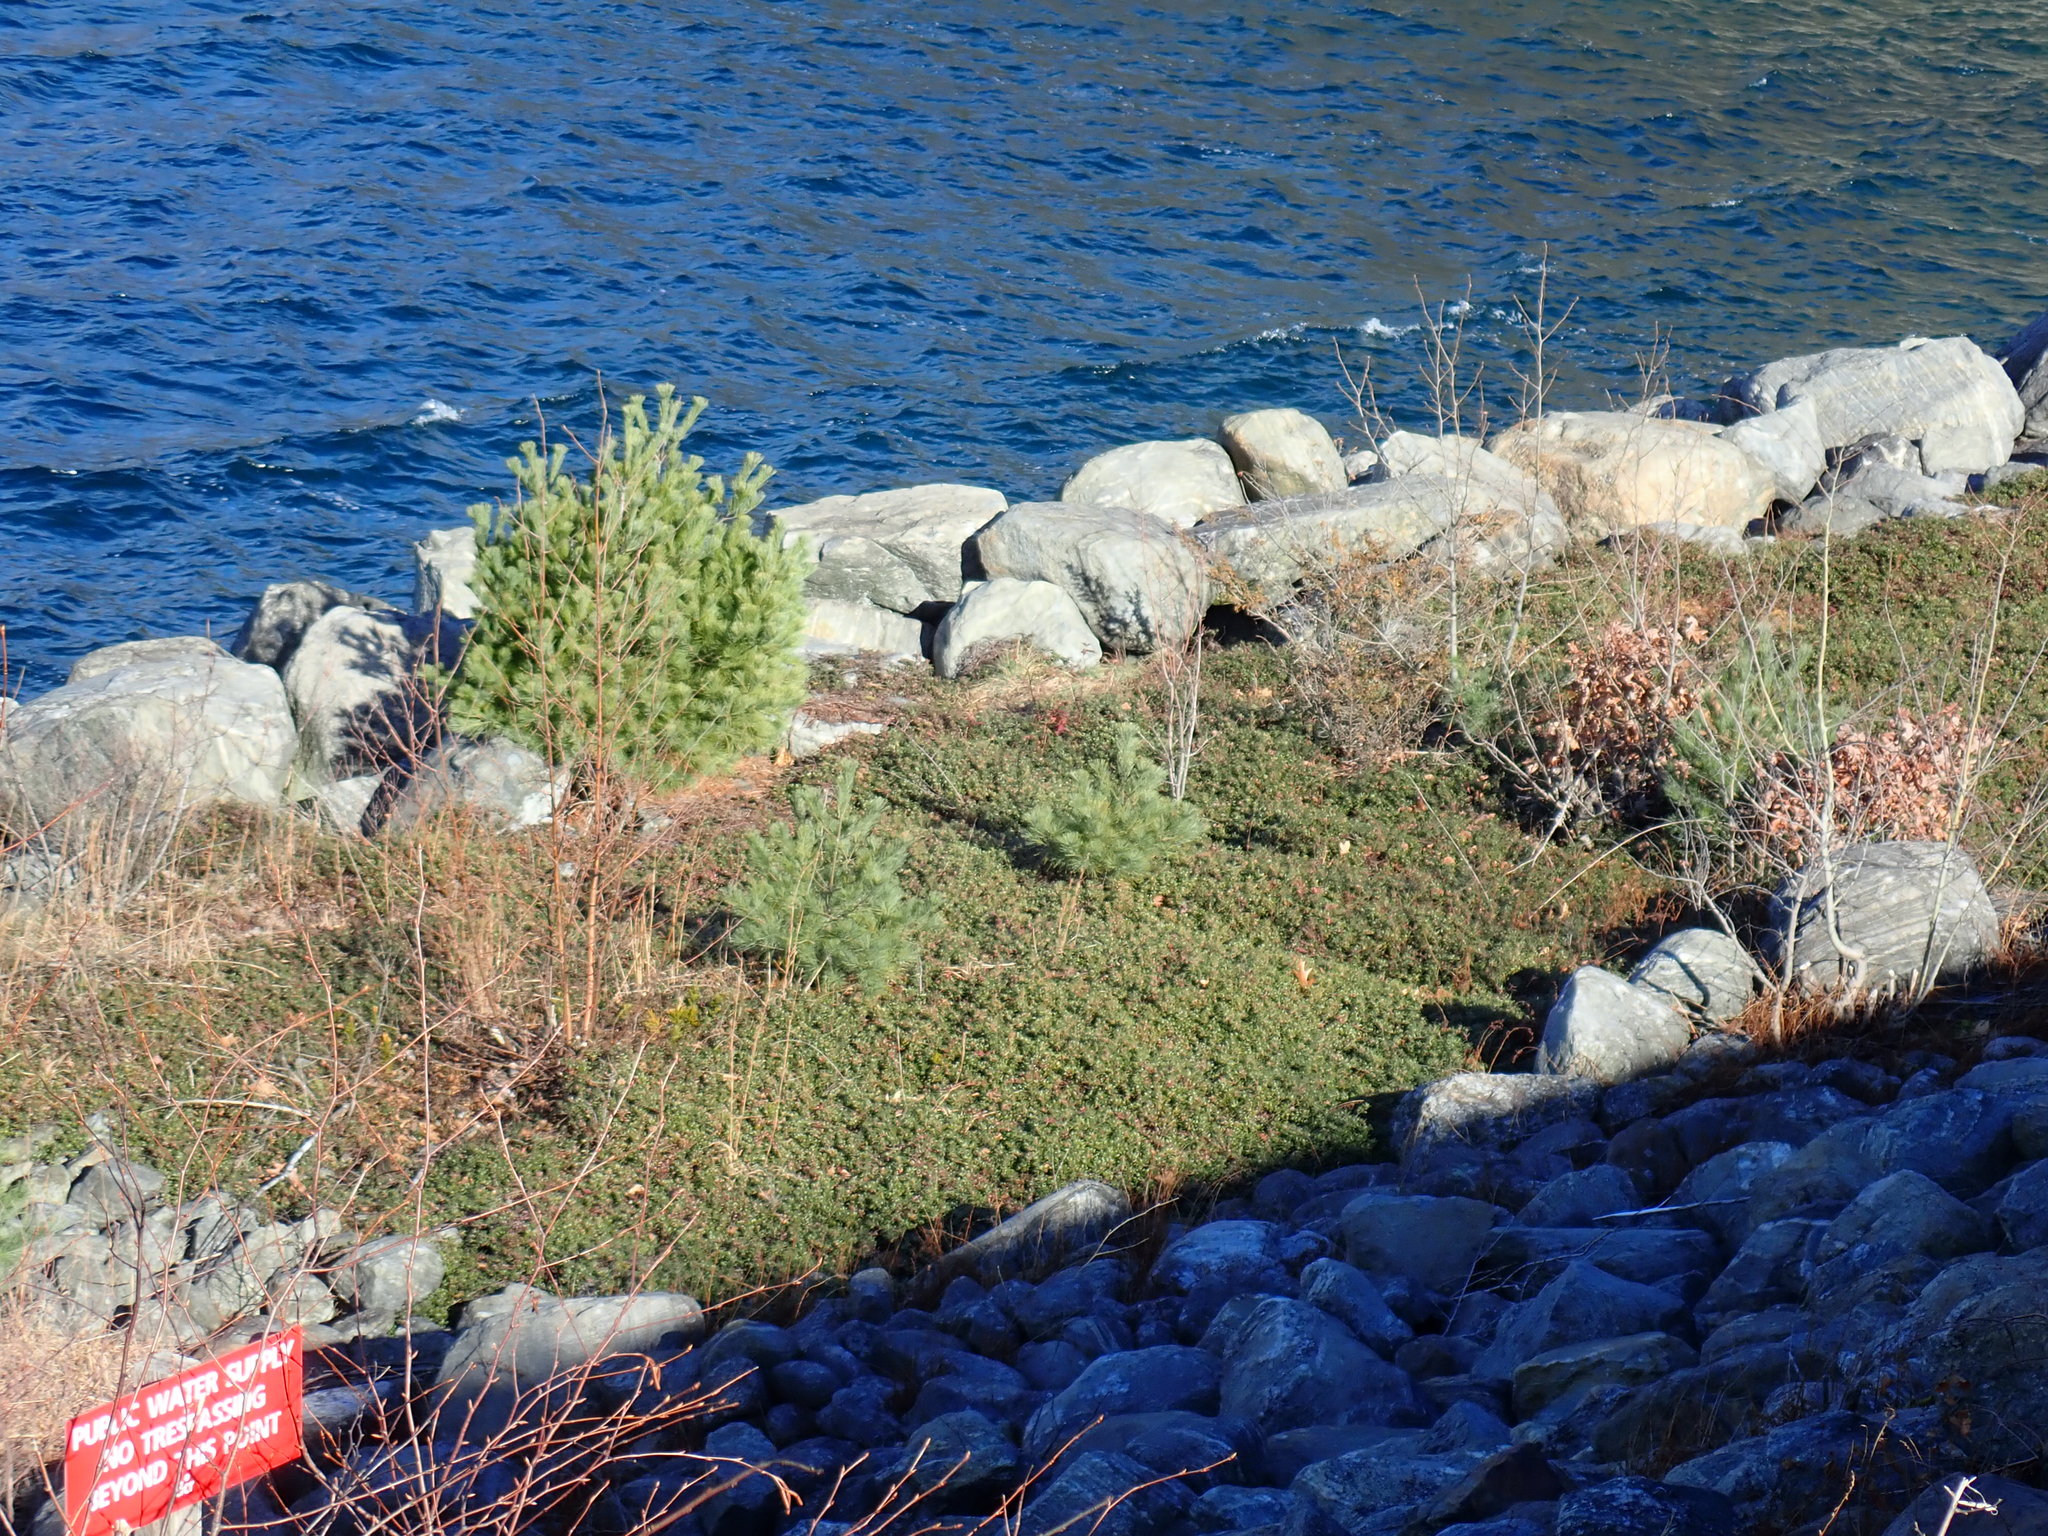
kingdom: Plantae
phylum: Tracheophyta
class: Magnoliopsida
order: Ericales
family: Ericaceae
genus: Arctostaphylos
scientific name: Arctostaphylos uva-ursi
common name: Bearberry
